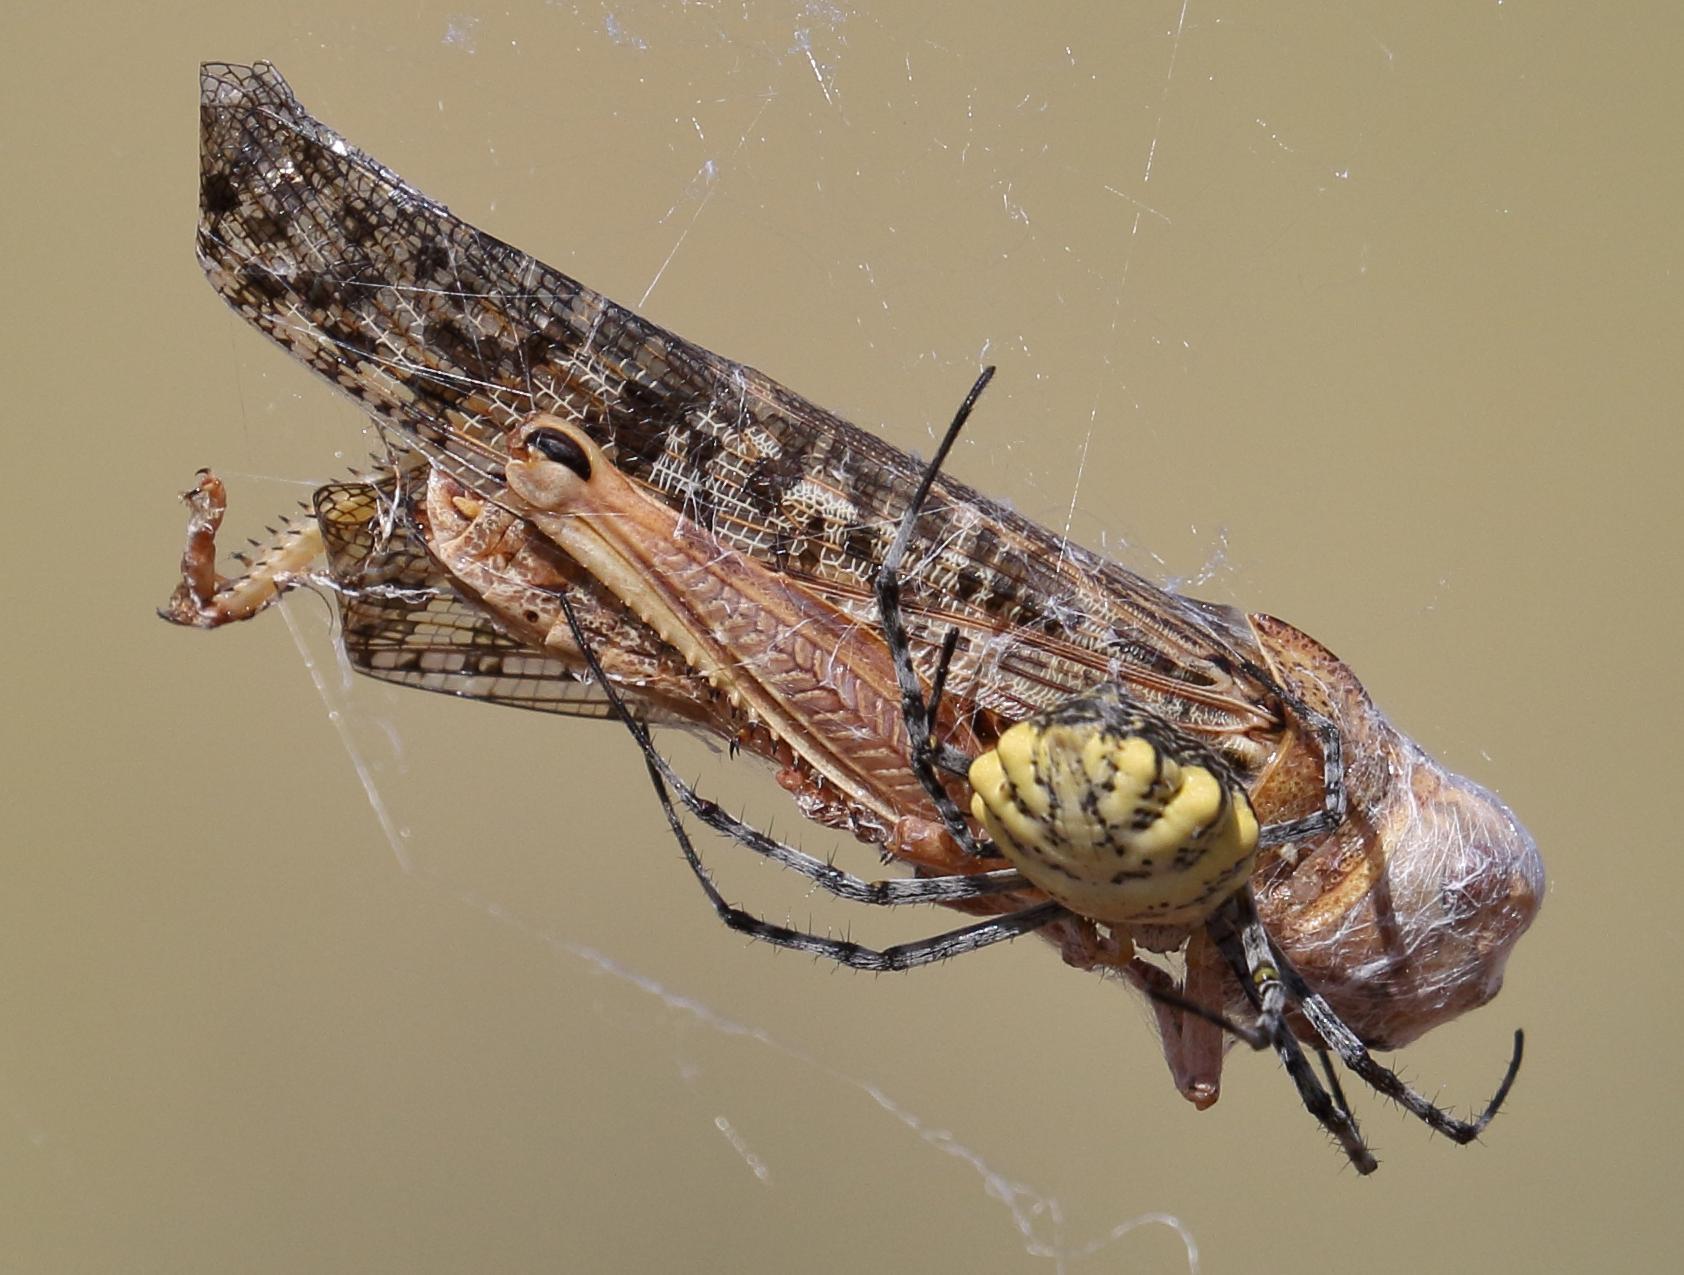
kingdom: Animalia
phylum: Arthropoda
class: Insecta
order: Orthoptera
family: Acrididae
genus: Locustana
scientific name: Locustana pardalina
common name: Brown locust
